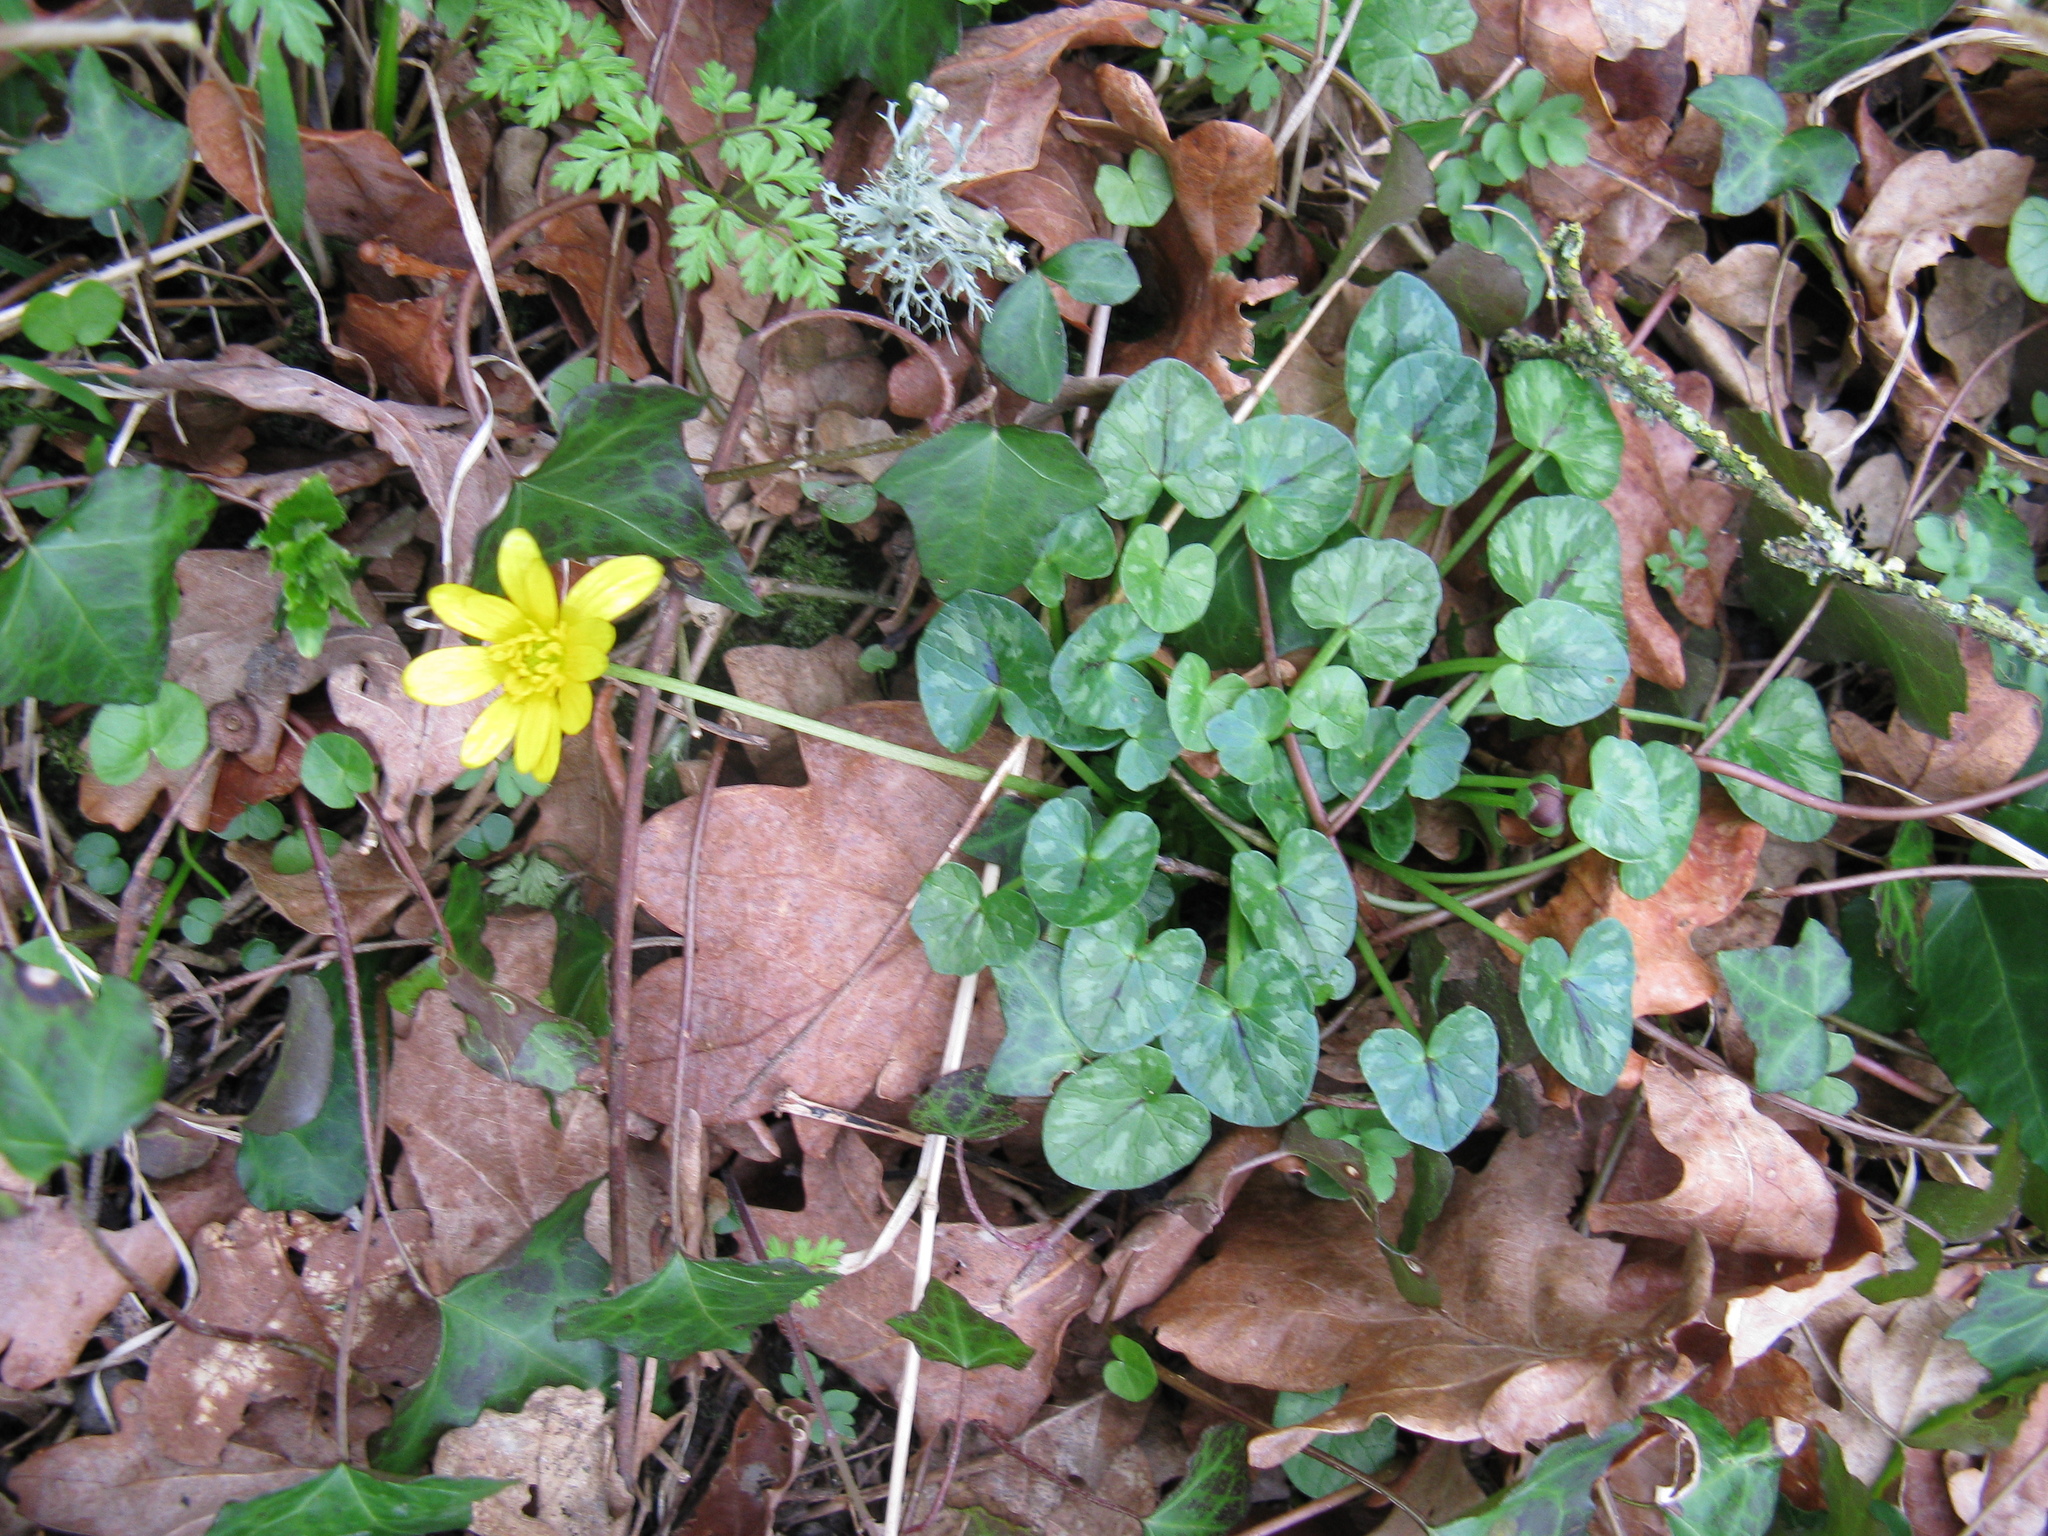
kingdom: Plantae
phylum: Tracheophyta
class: Magnoliopsida
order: Ranunculales
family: Ranunculaceae
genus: Ficaria
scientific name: Ficaria verna
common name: Lesser celandine
